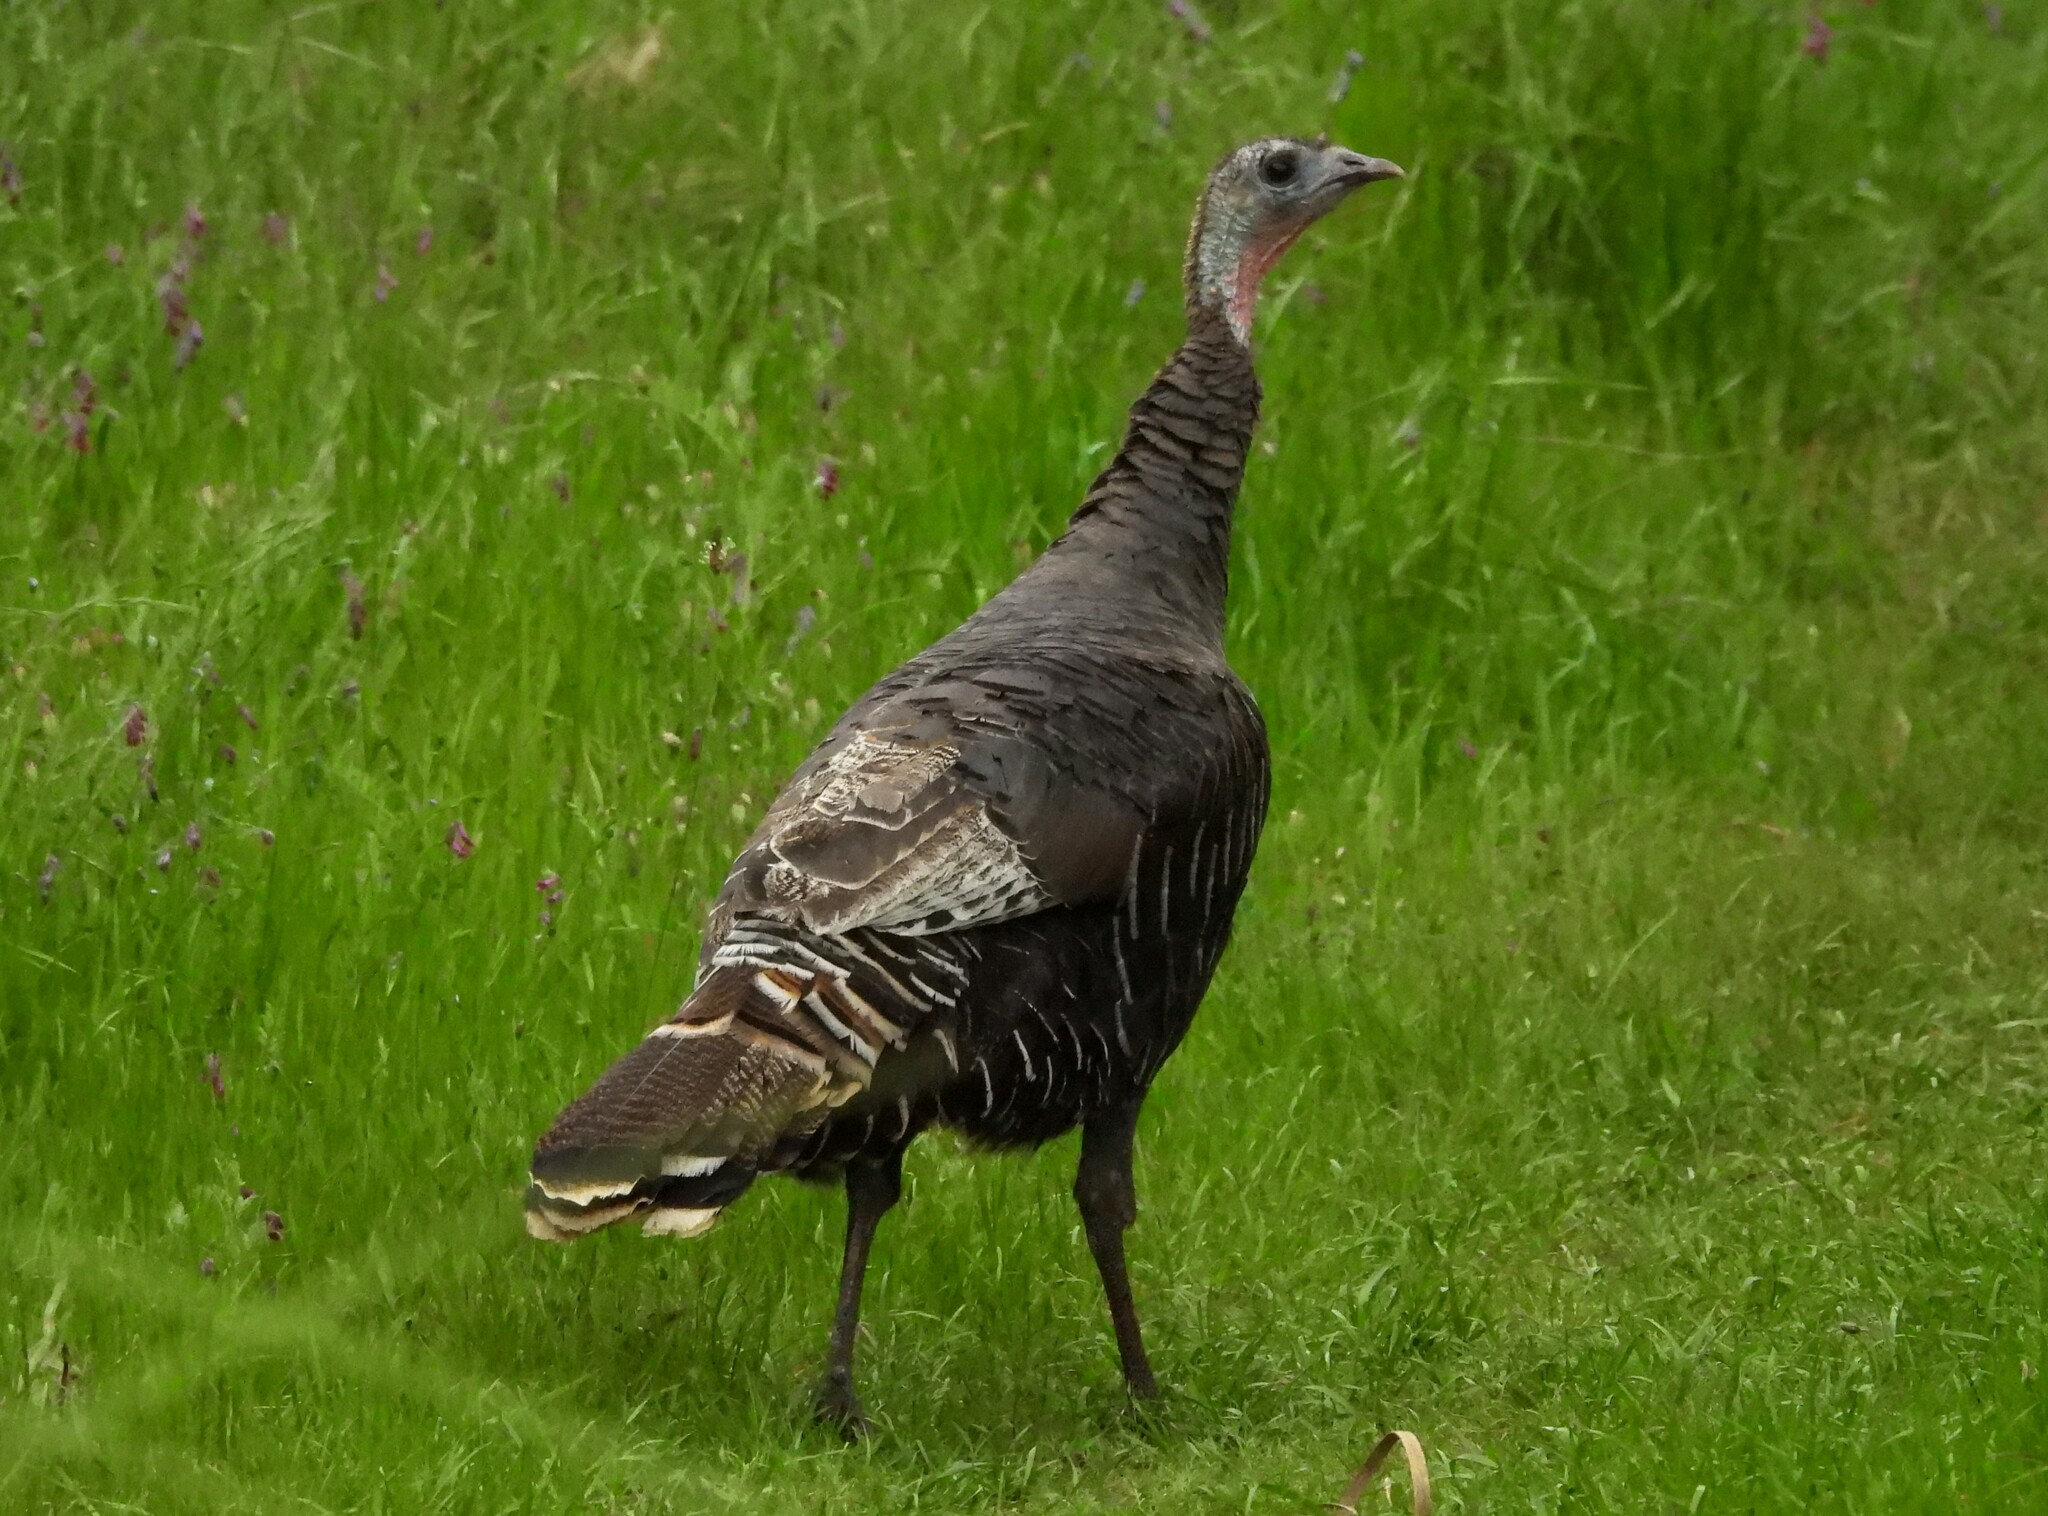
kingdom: Animalia
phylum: Chordata
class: Aves
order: Galliformes
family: Phasianidae
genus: Meleagris
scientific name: Meleagris gallopavo
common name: Wild turkey
